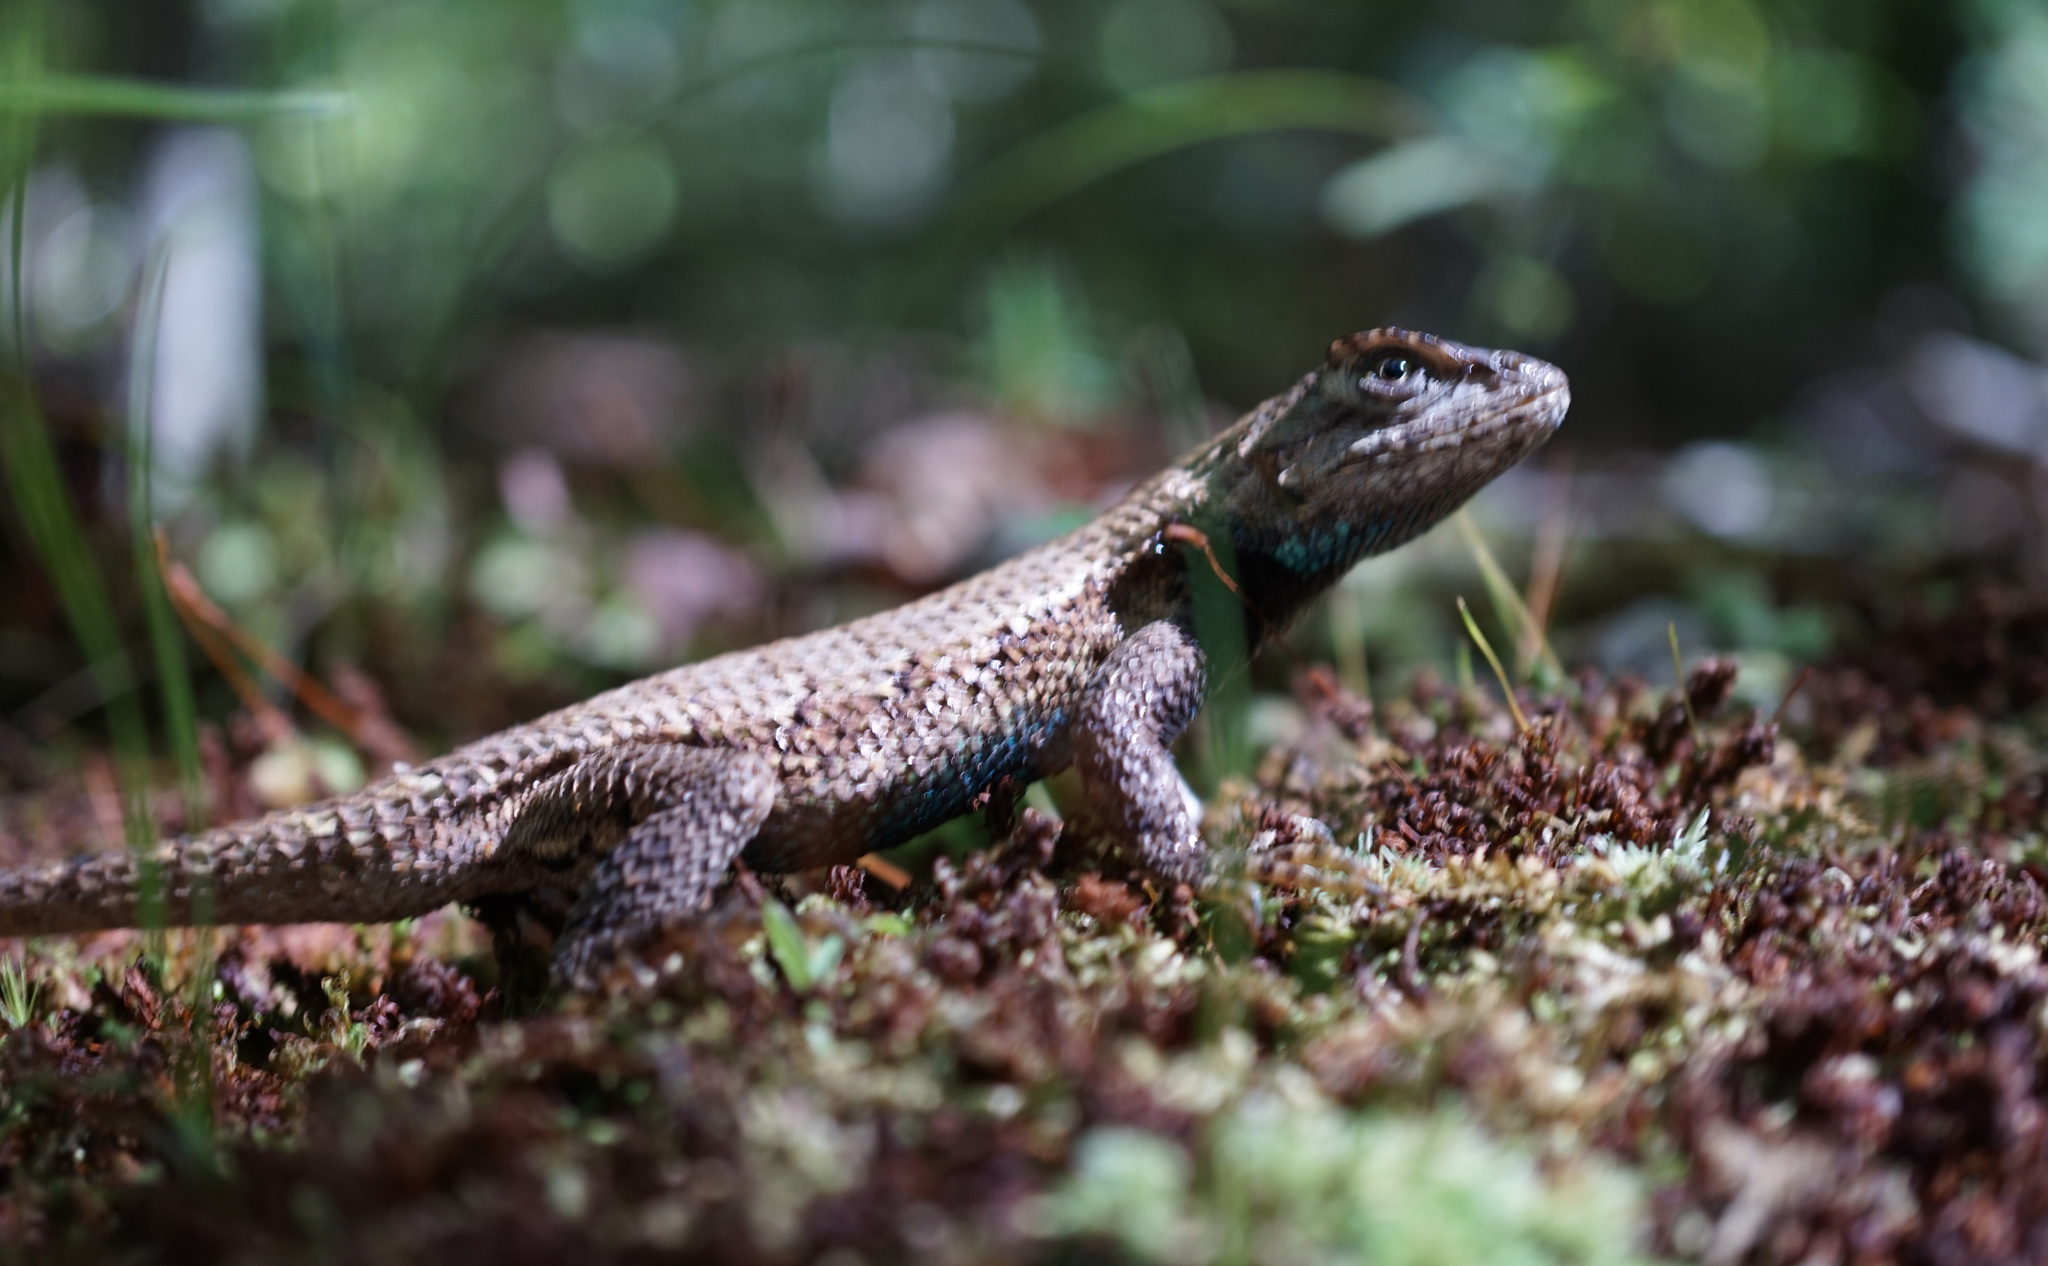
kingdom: Animalia
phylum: Chordata
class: Squamata
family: Phrynosomatidae
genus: Sceloporus
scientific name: Sceloporus undulatus
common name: Eastern fence lizard
